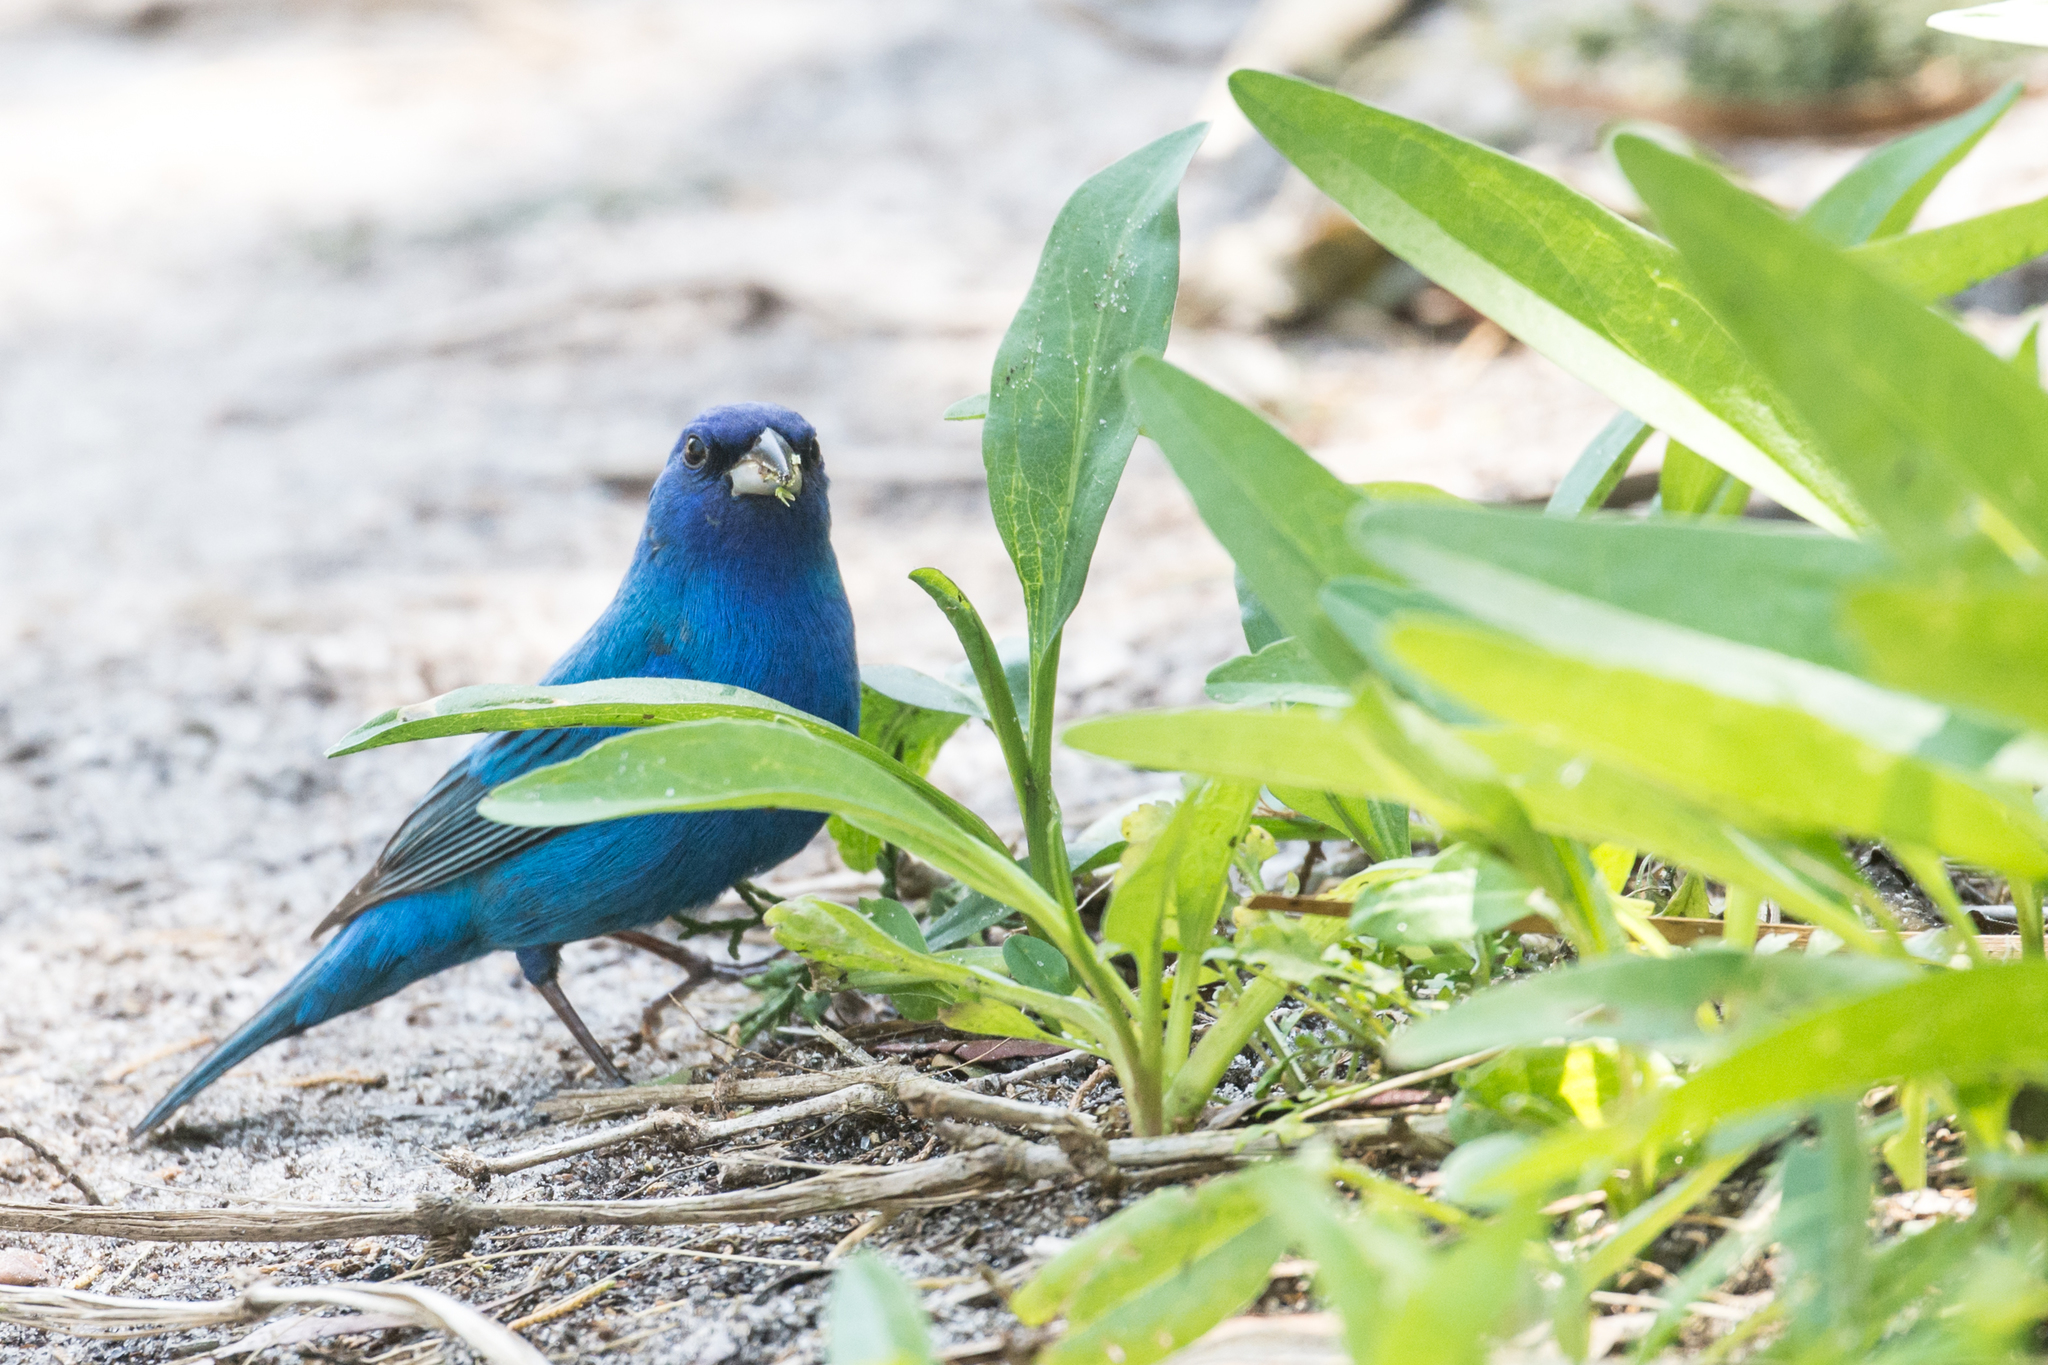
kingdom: Animalia
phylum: Chordata
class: Aves
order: Passeriformes
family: Cardinalidae
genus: Passerina
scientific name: Passerina cyanea
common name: Indigo bunting
